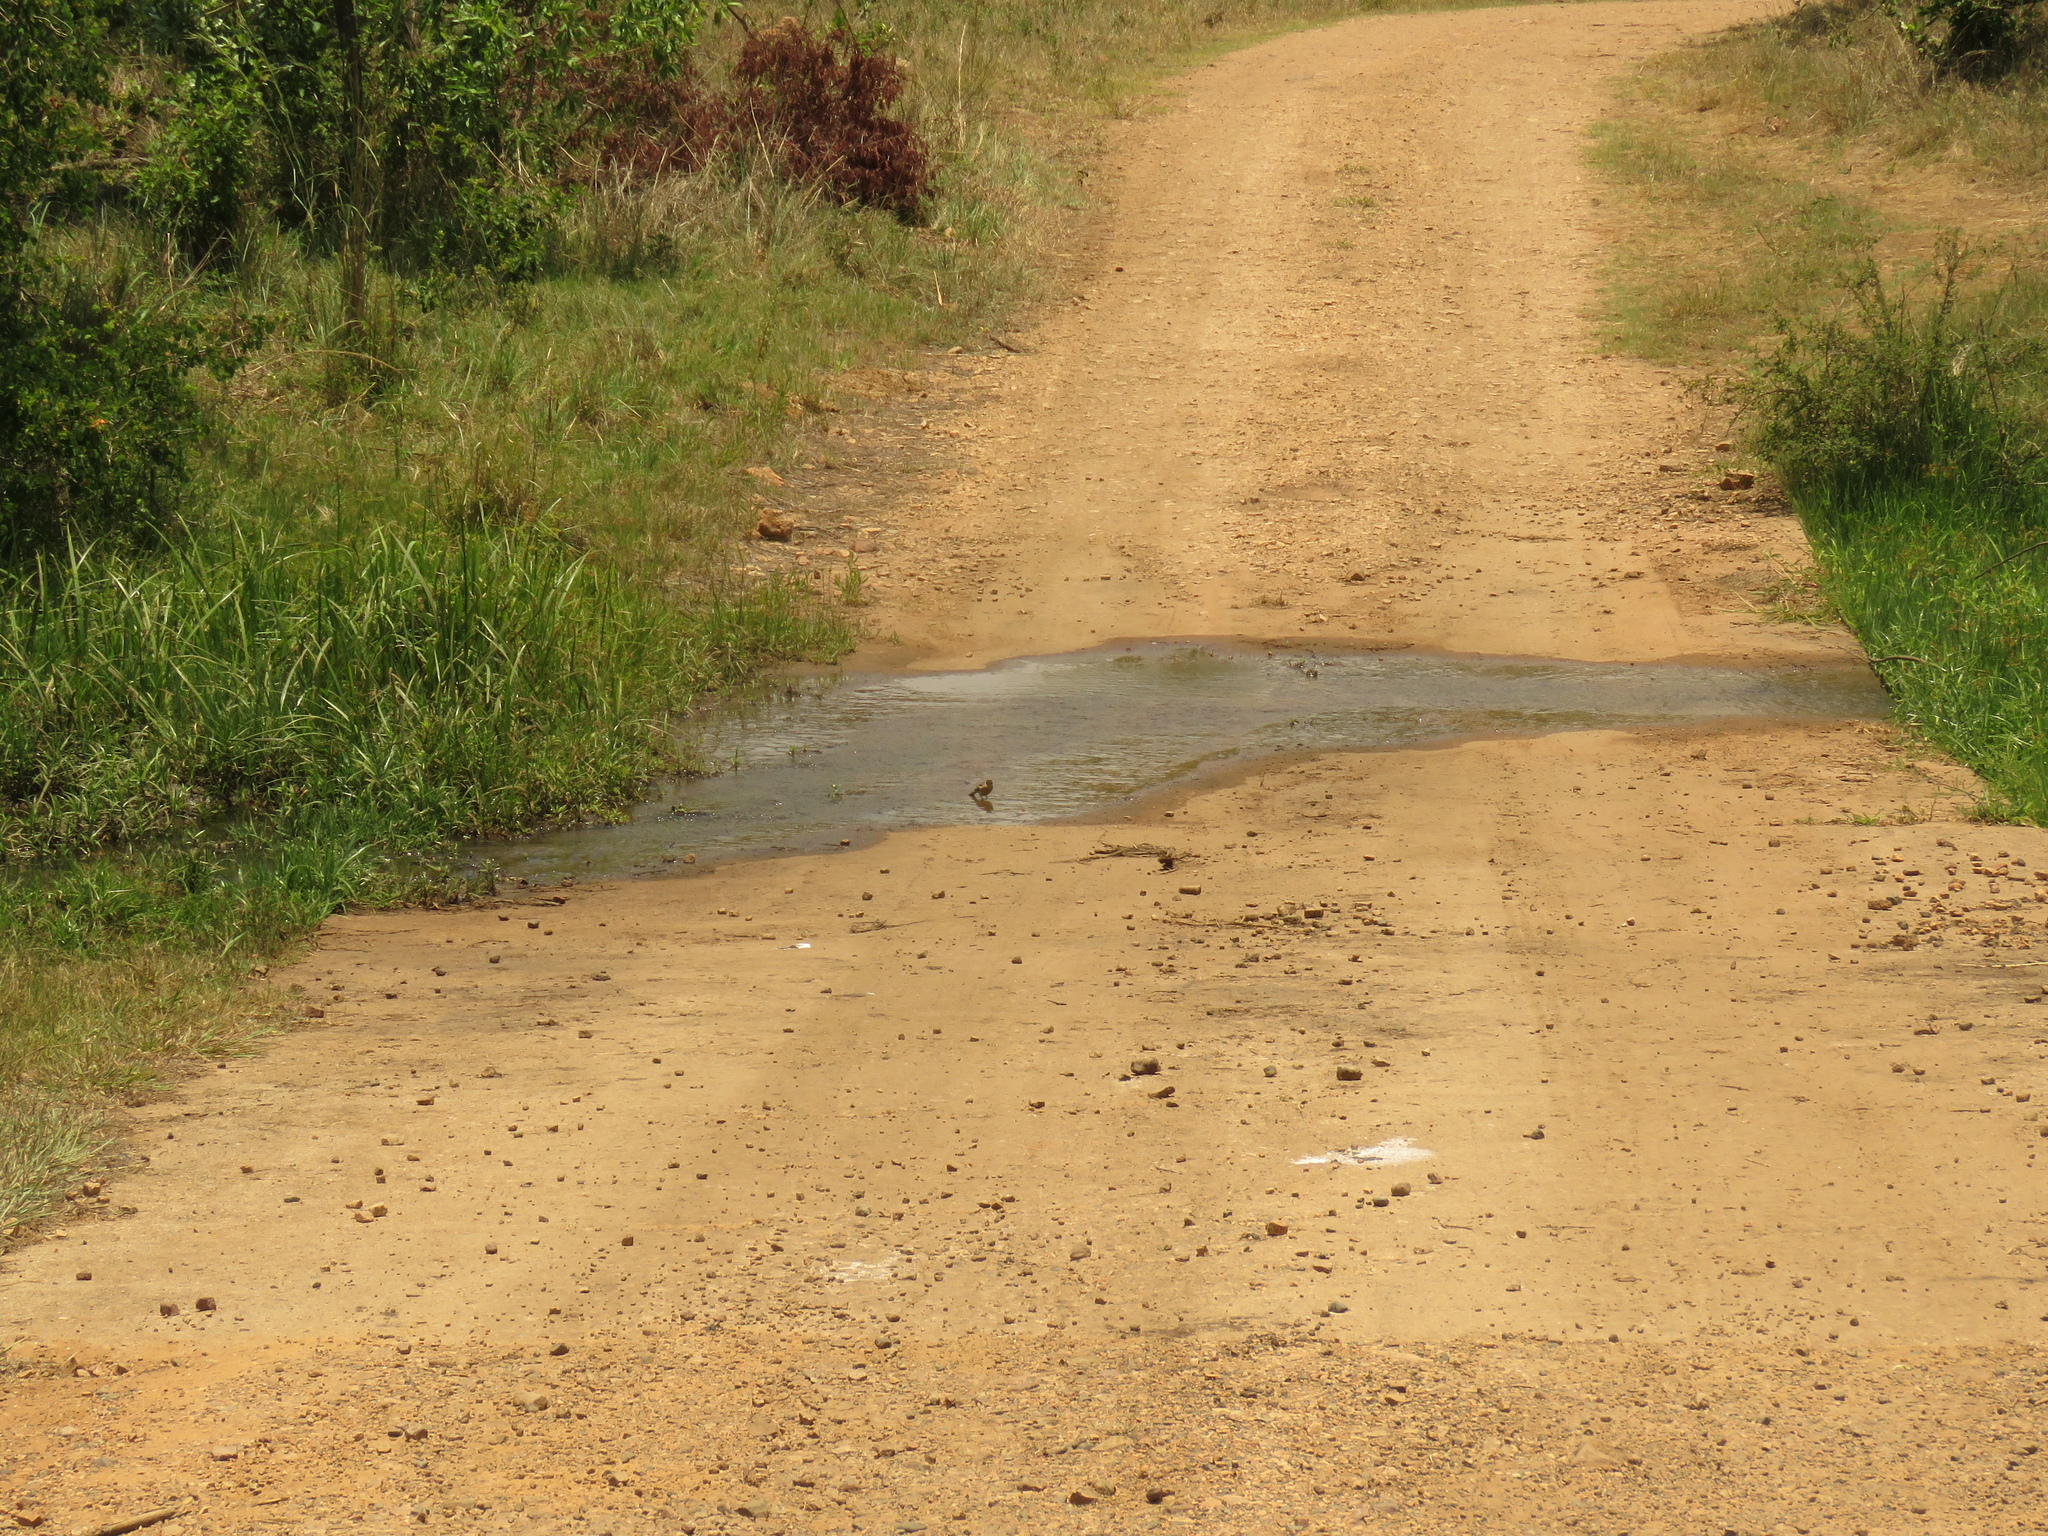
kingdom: Animalia
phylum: Chordata
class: Aves
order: Passeriformes
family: Emberizidae
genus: Emberiza
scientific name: Emberiza flaviventris
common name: Golden-breasted bunting
